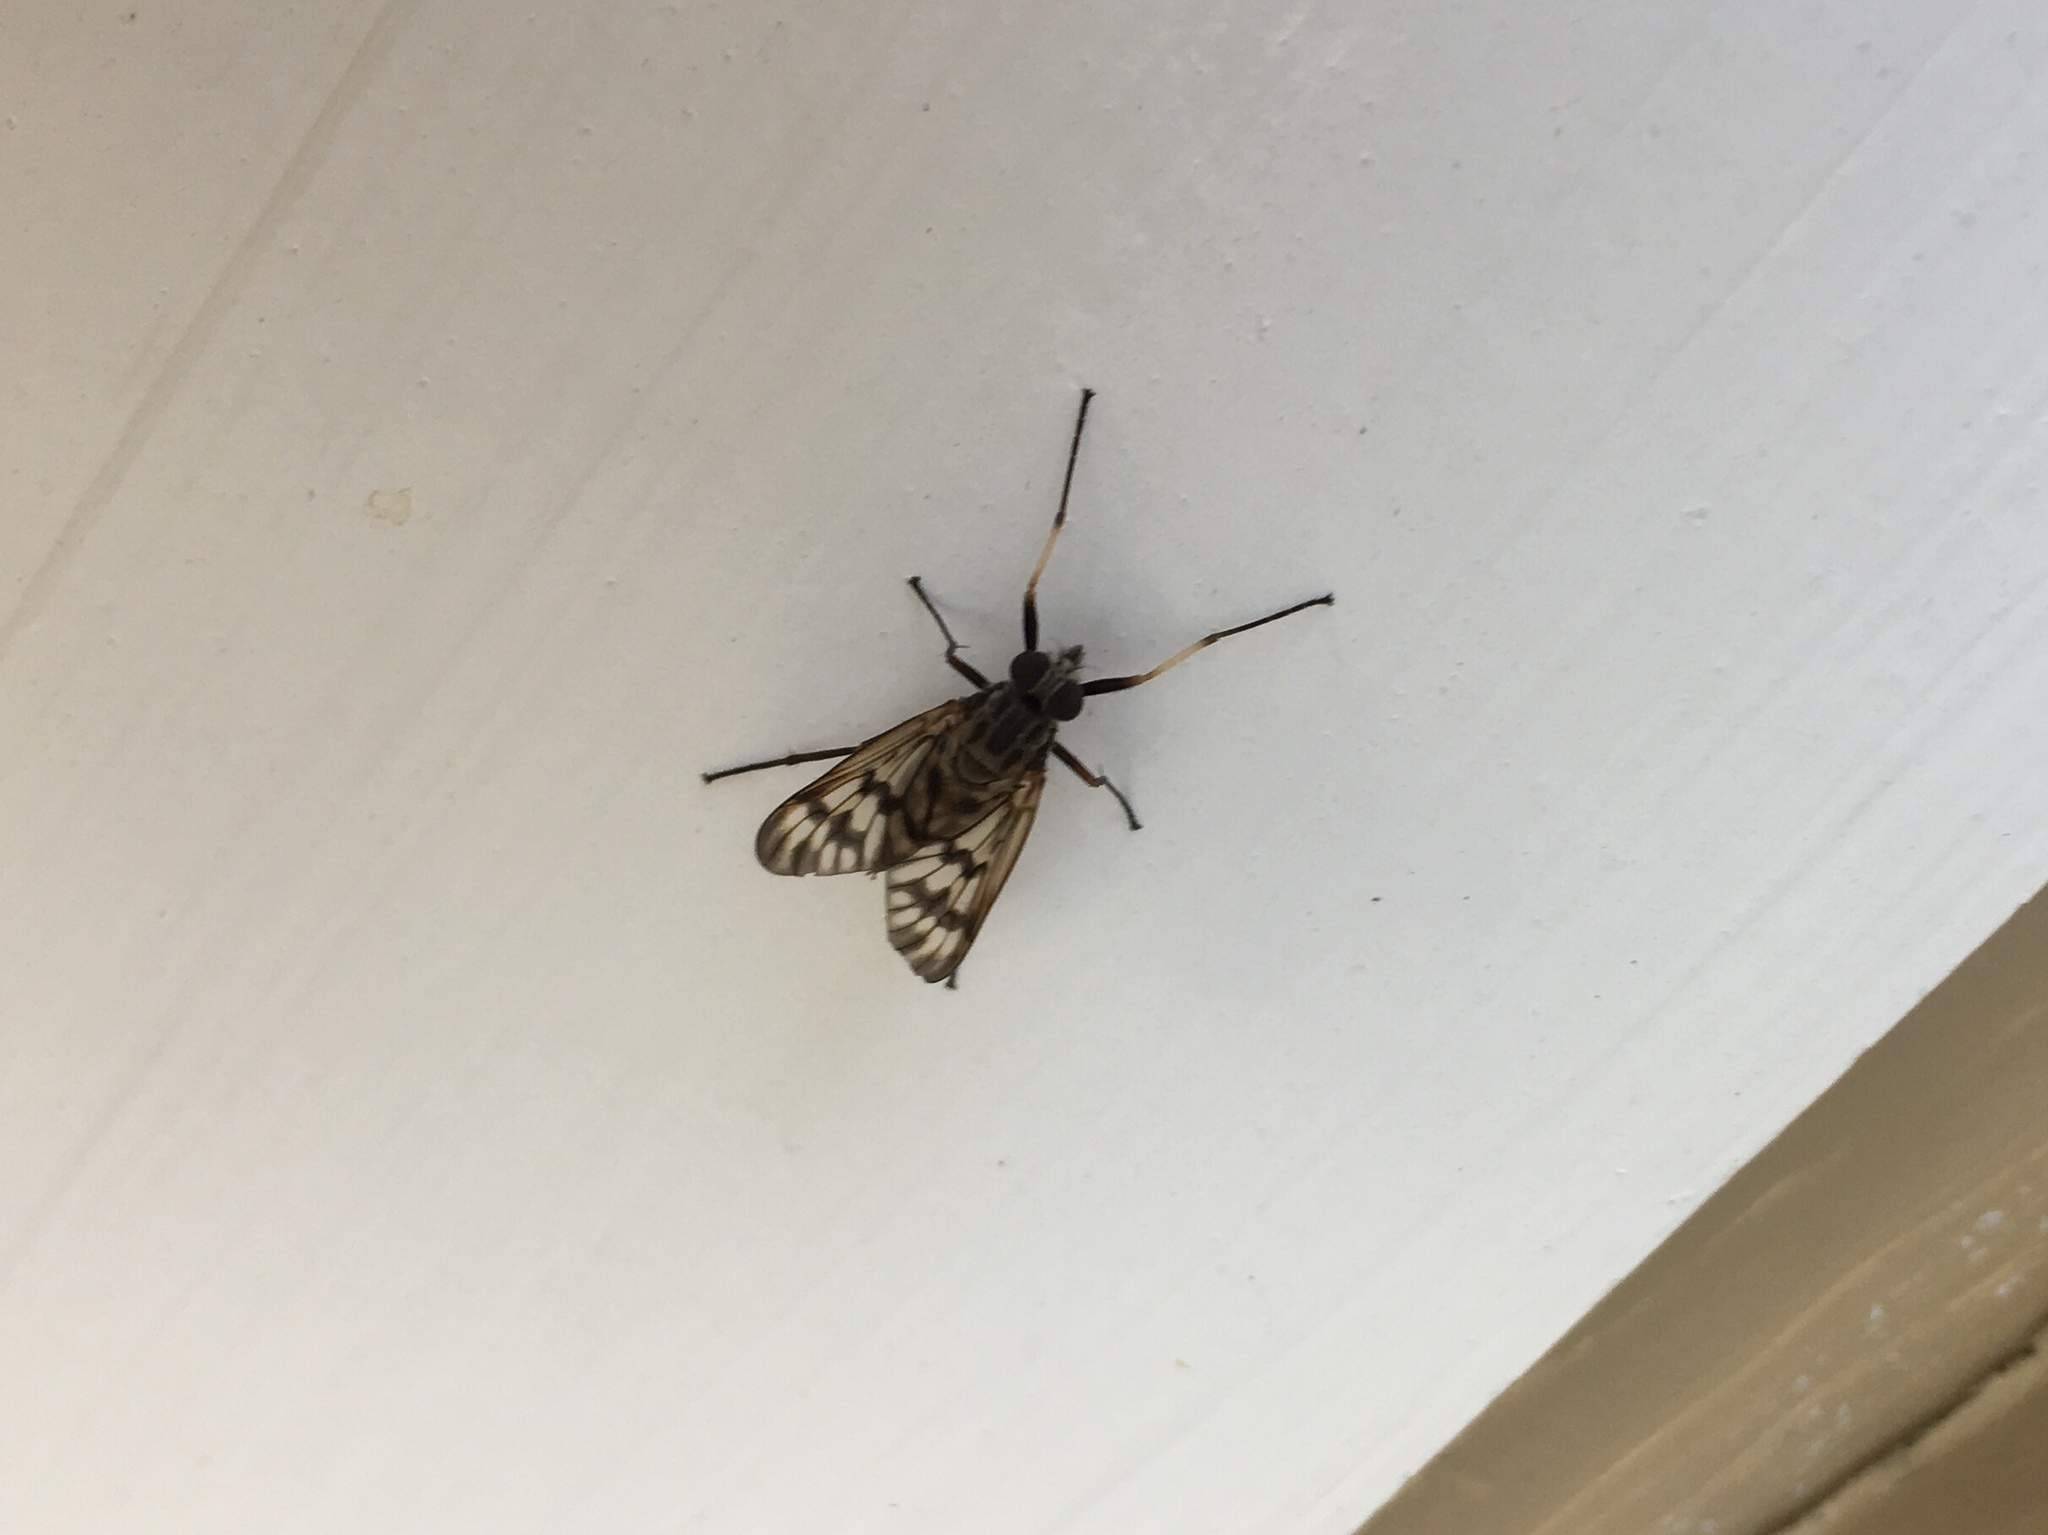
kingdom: Animalia
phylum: Arthropoda
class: Insecta
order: Diptera
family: Rhagionidae
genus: Rhagio
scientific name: Rhagio mystaceus
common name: Common snipe fly
